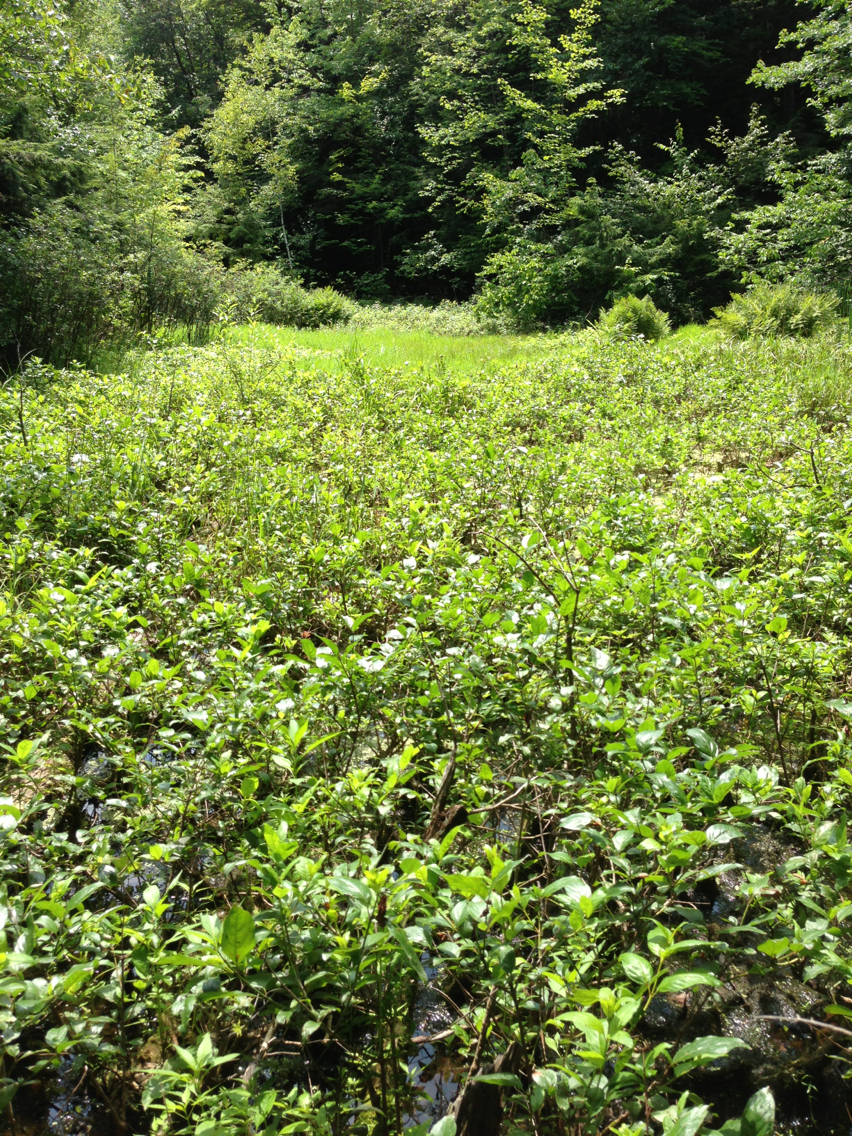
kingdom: Plantae
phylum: Tracheophyta
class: Magnoliopsida
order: Gentianales
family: Rubiaceae
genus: Cephalanthus
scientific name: Cephalanthus occidentalis
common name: Button-willow
